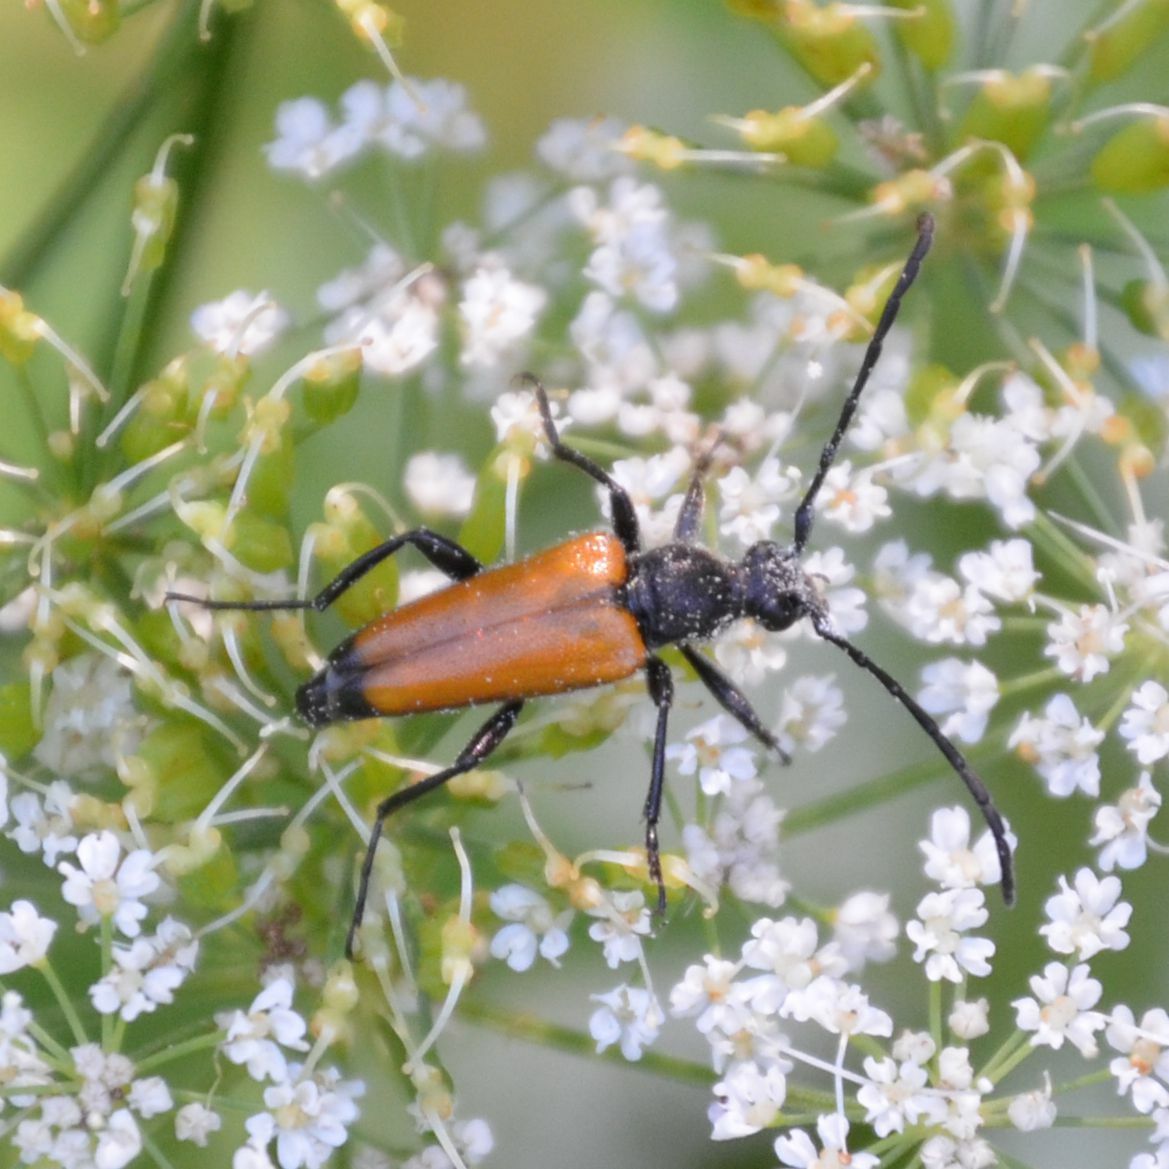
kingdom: Animalia
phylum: Arthropoda
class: Insecta
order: Coleoptera
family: Cerambycidae
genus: Paracorymbia
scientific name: Paracorymbia fulva
